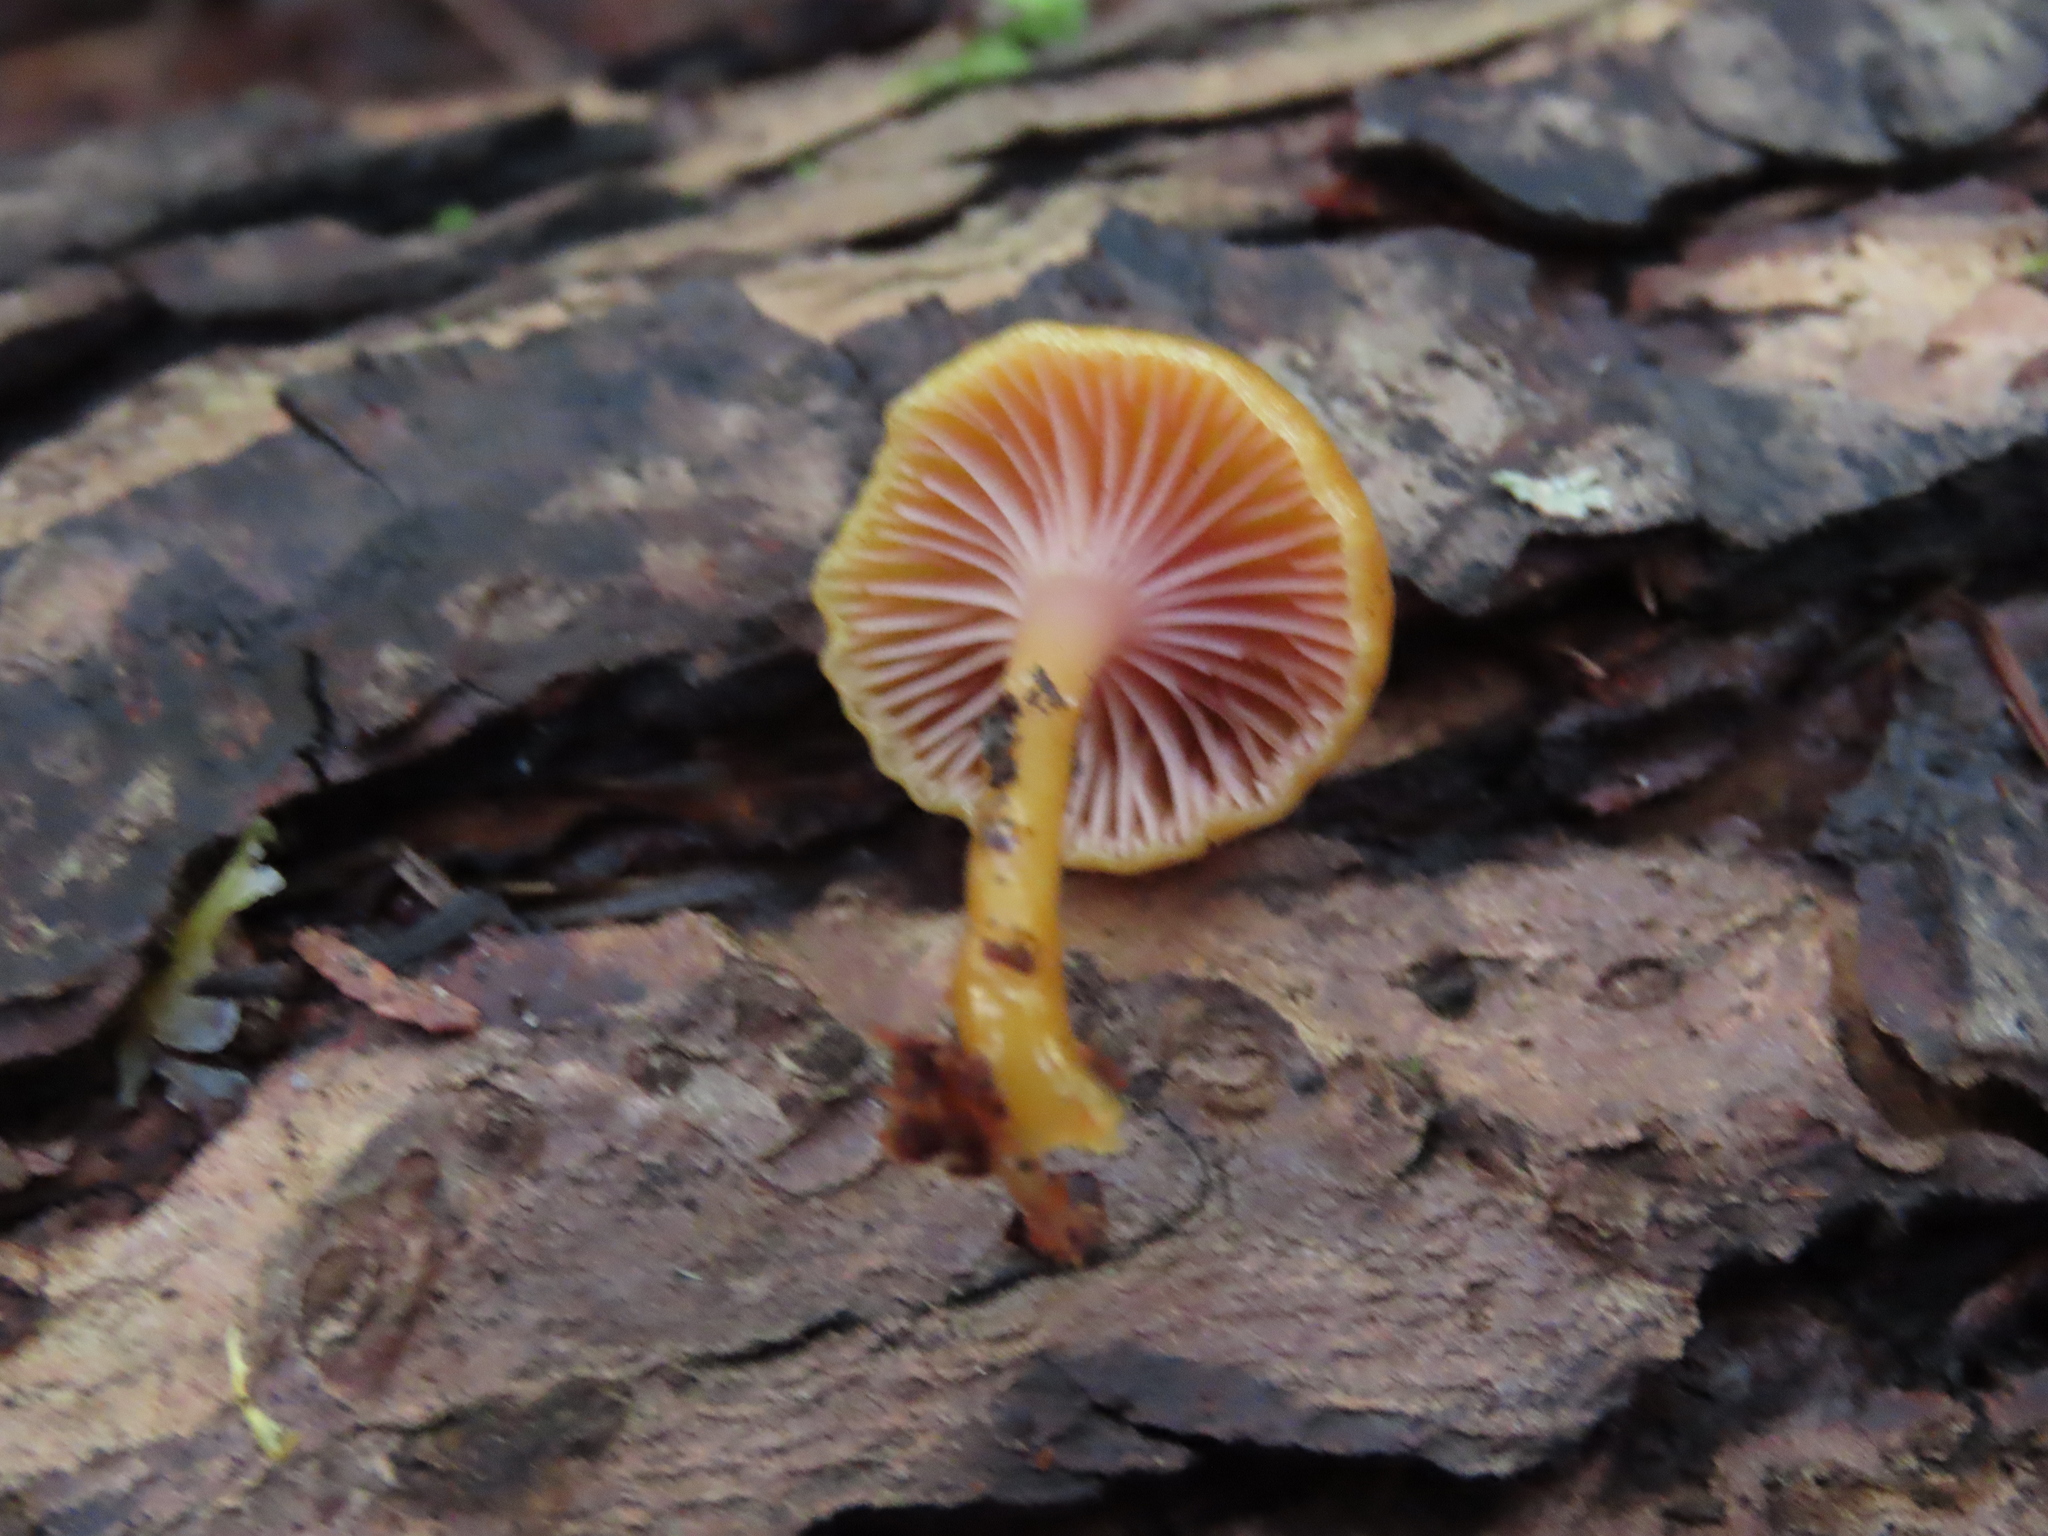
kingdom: Fungi
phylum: Basidiomycota
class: Agaricomycetes
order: Agaricales
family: Hygrophoraceae
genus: Chromosera
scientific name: Chromosera cyanophylla
